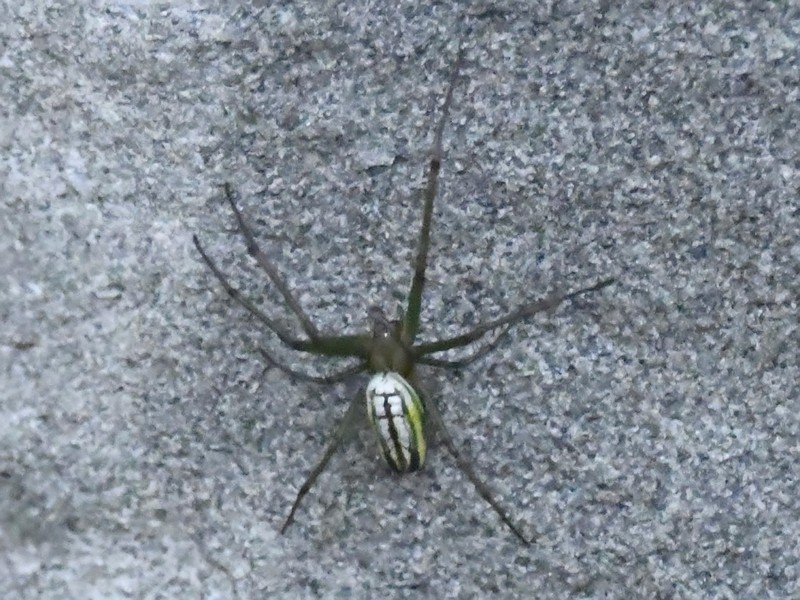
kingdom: Animalia
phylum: Arthropoda
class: Arachnida
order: Araneae
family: Tetragnathidae
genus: Leucauge
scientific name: Leucauge celebesiana
